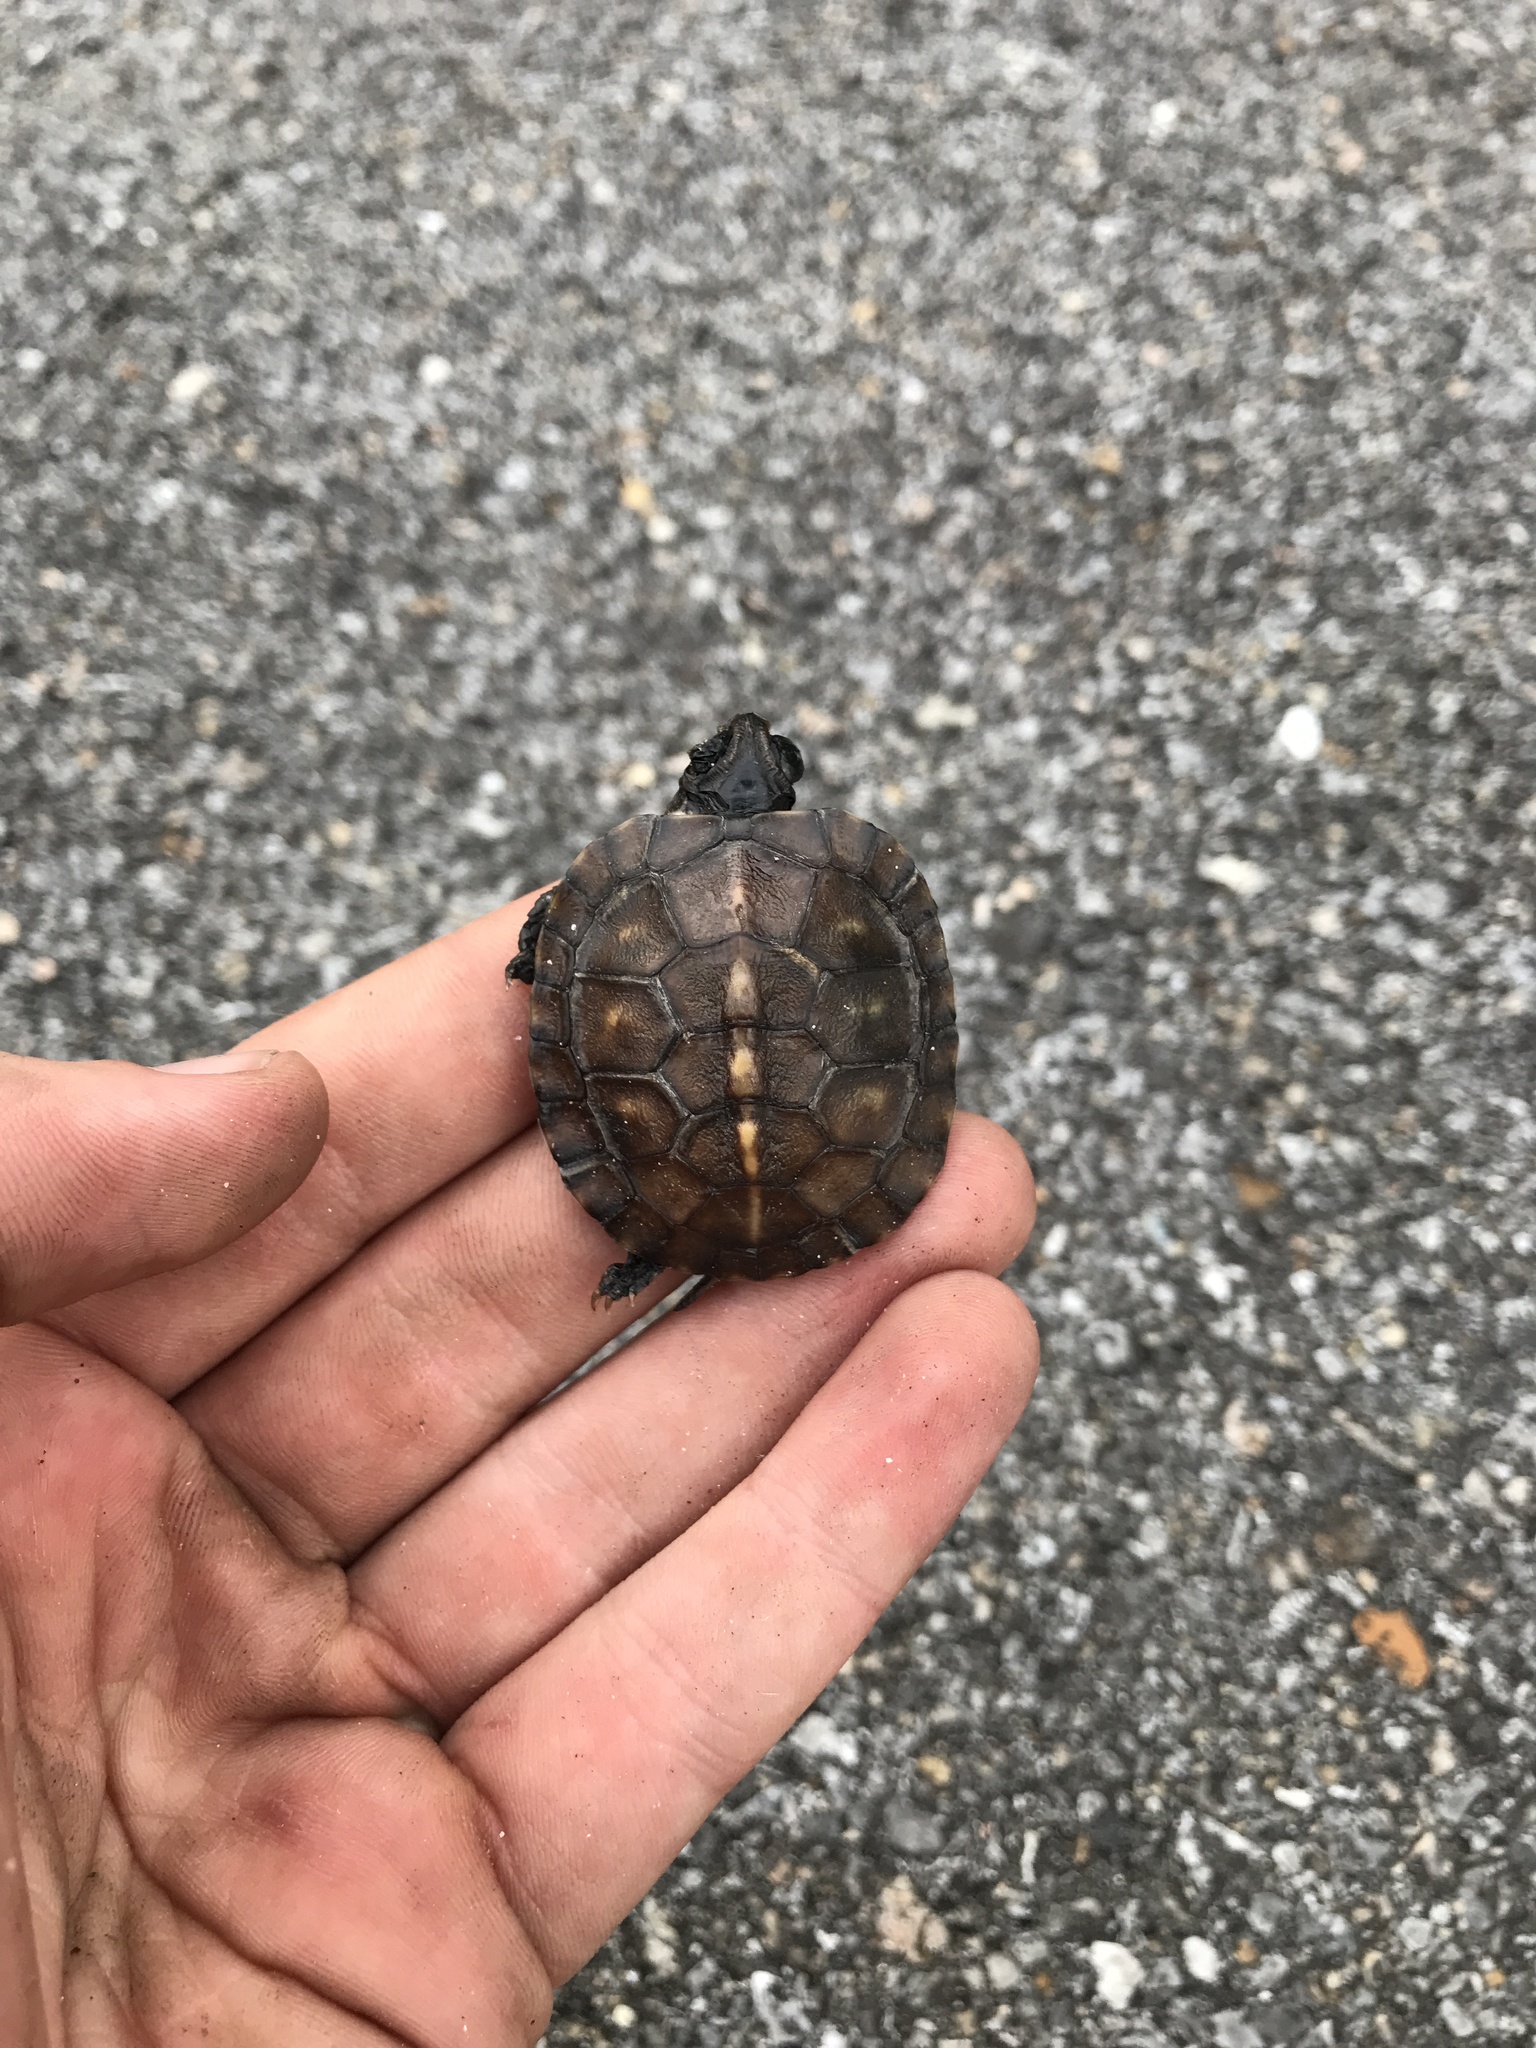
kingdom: Animalia
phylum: Chordata
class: Testudines
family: Emydidae
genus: Terrapene
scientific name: Terrapene carolina
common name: Common box turtle
